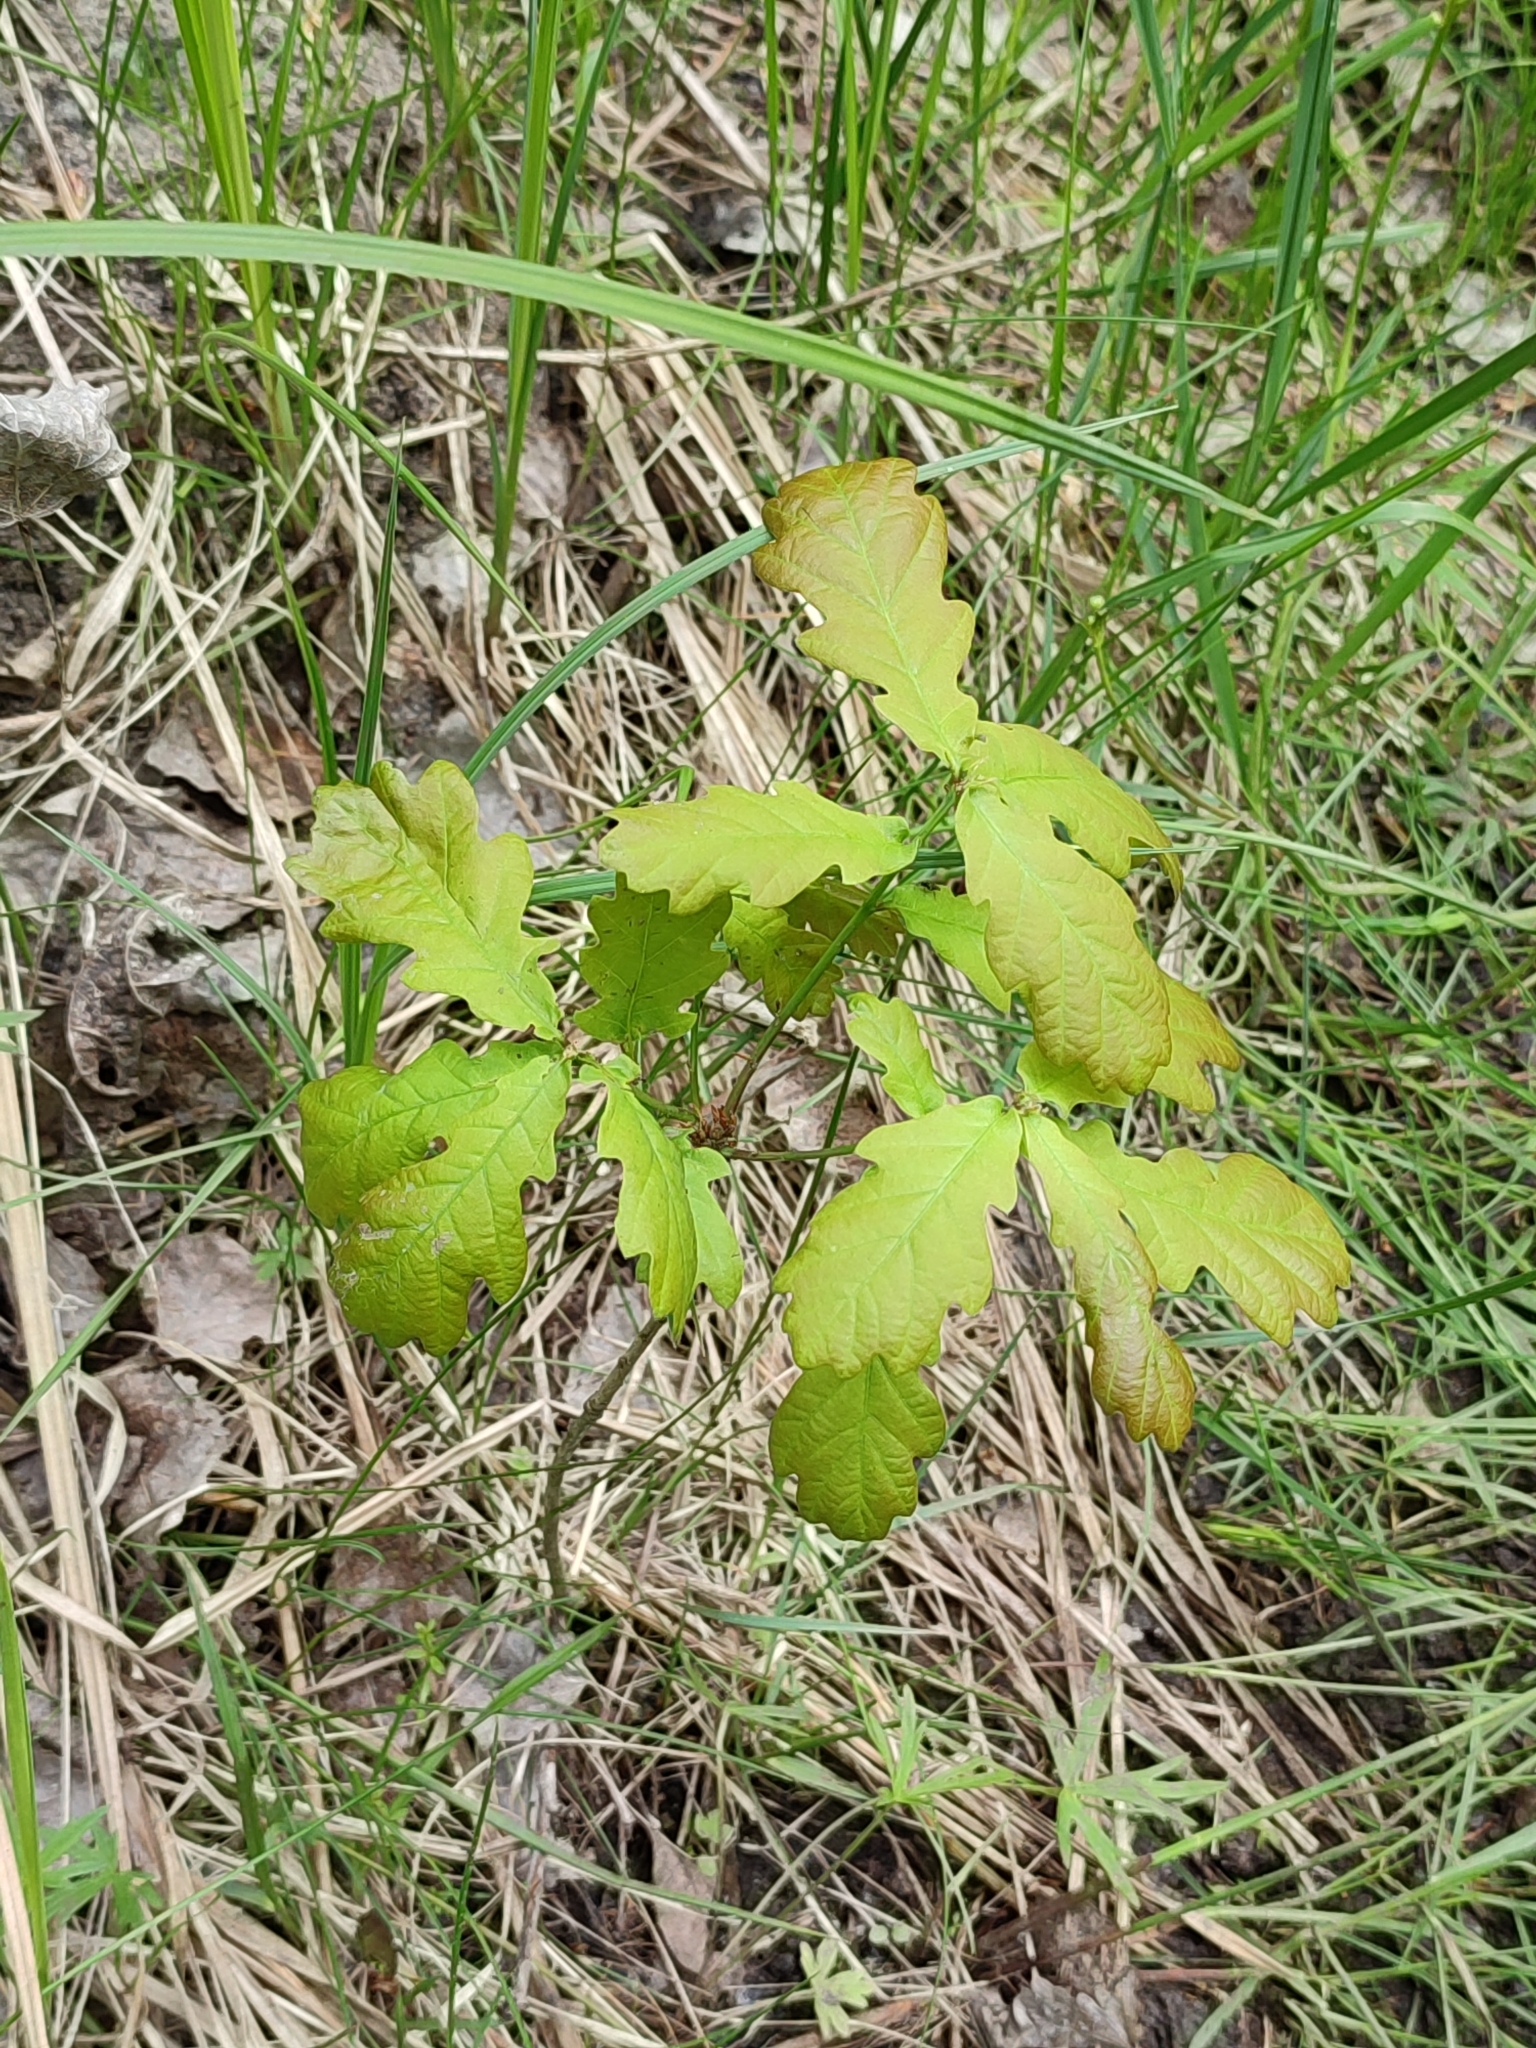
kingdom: Plantae
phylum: Tracheophyta
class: Magnoliopsida
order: Fagales
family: Fagaceae
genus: Quercus
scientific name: Quercus robur
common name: Pedunculate oak
